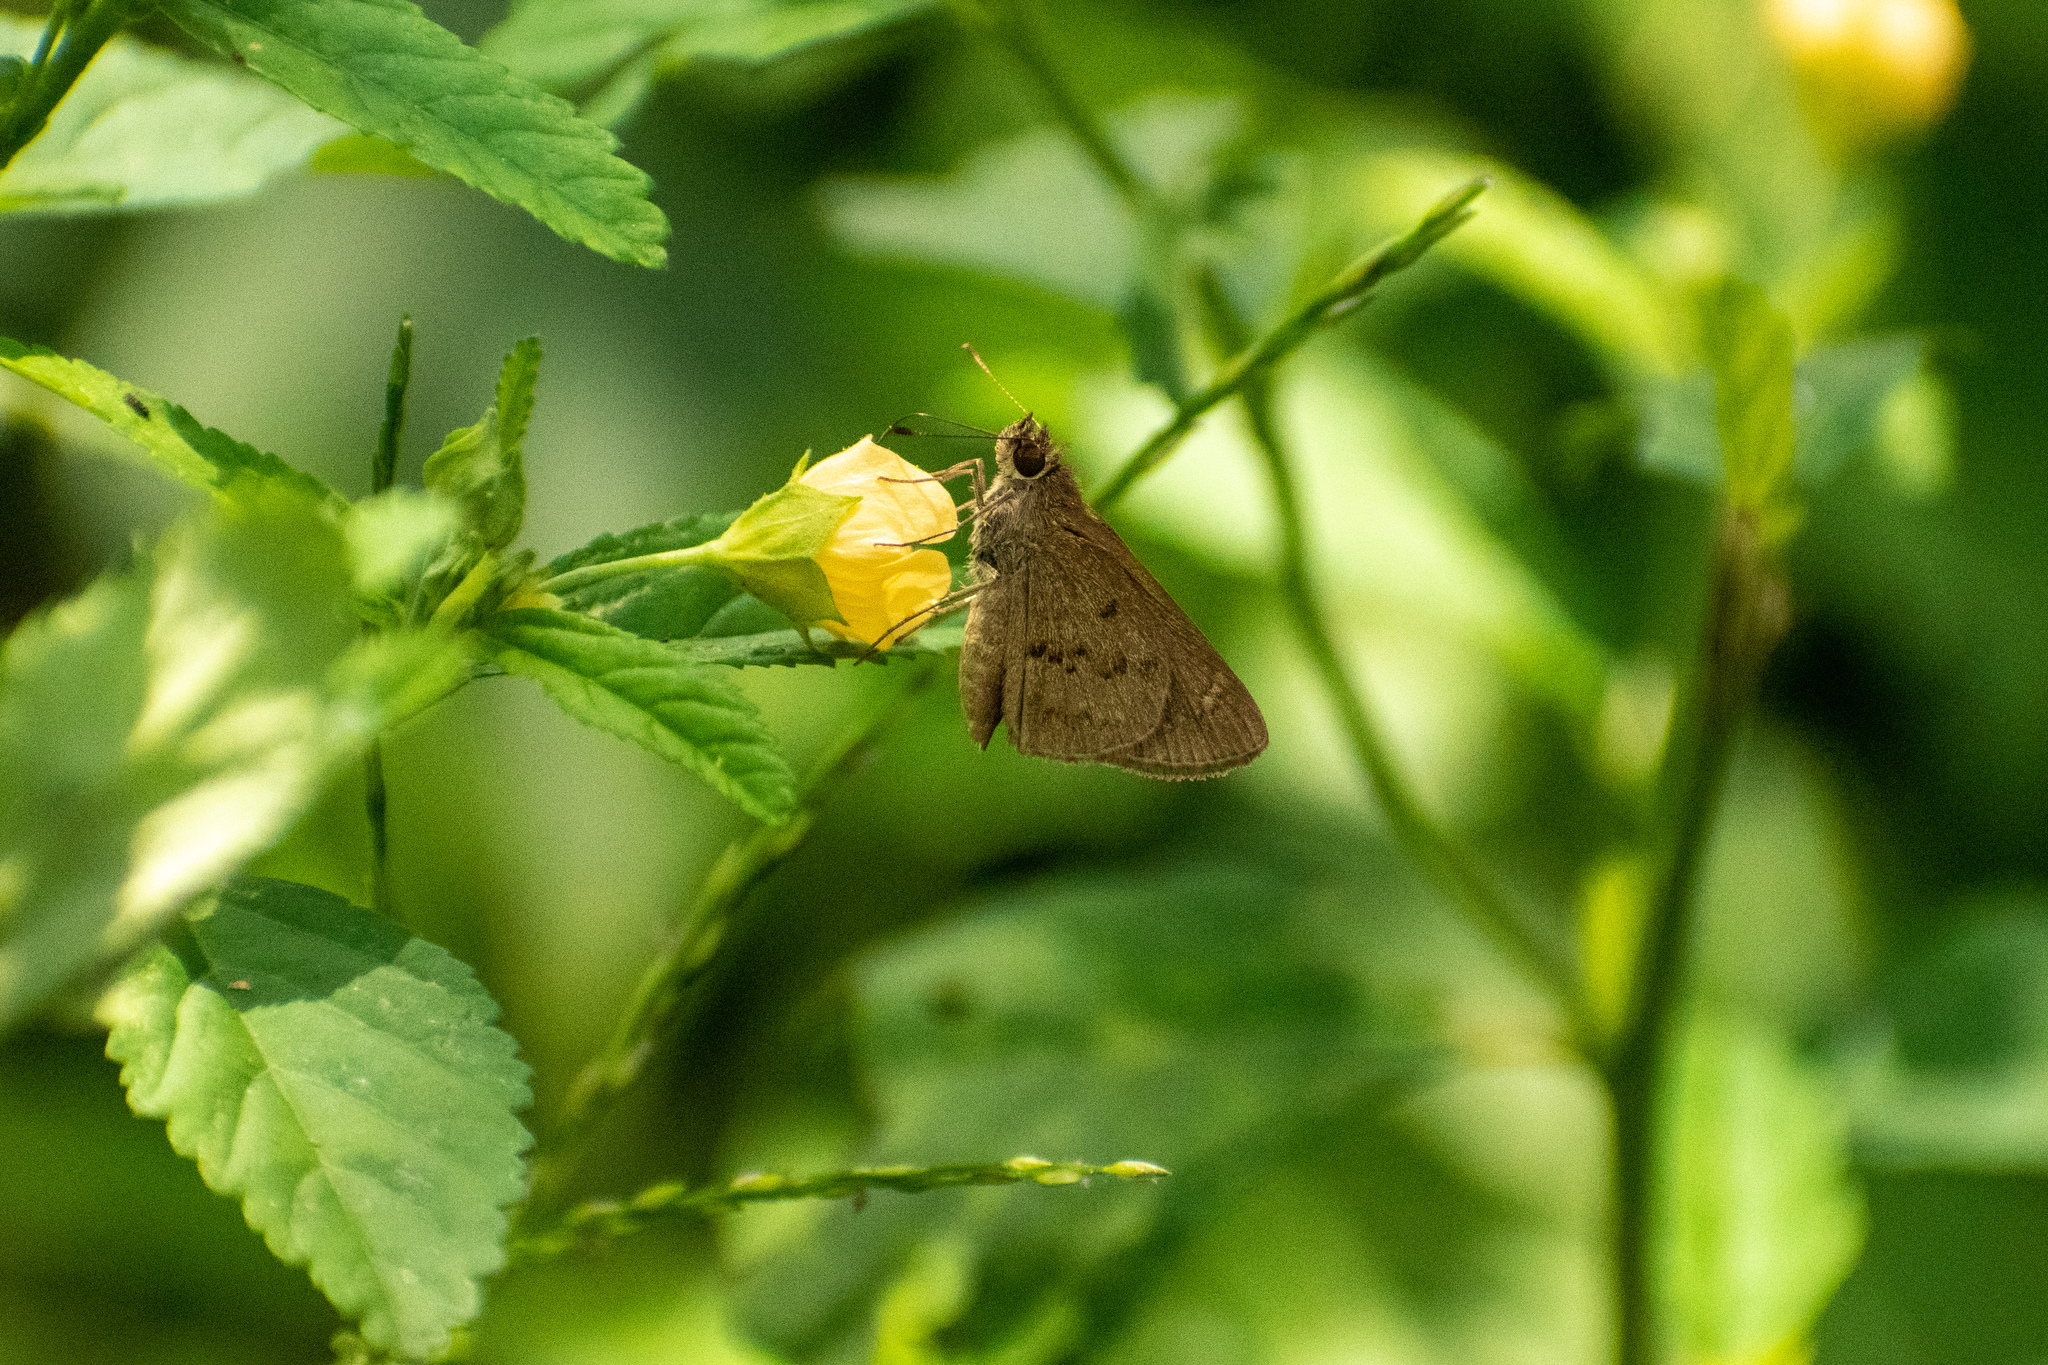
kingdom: Animalia
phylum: Arthropoda
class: Insecta
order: Lepidoptera
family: Hesperiidae
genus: Cymaenes
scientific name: Cymaenes gisca
